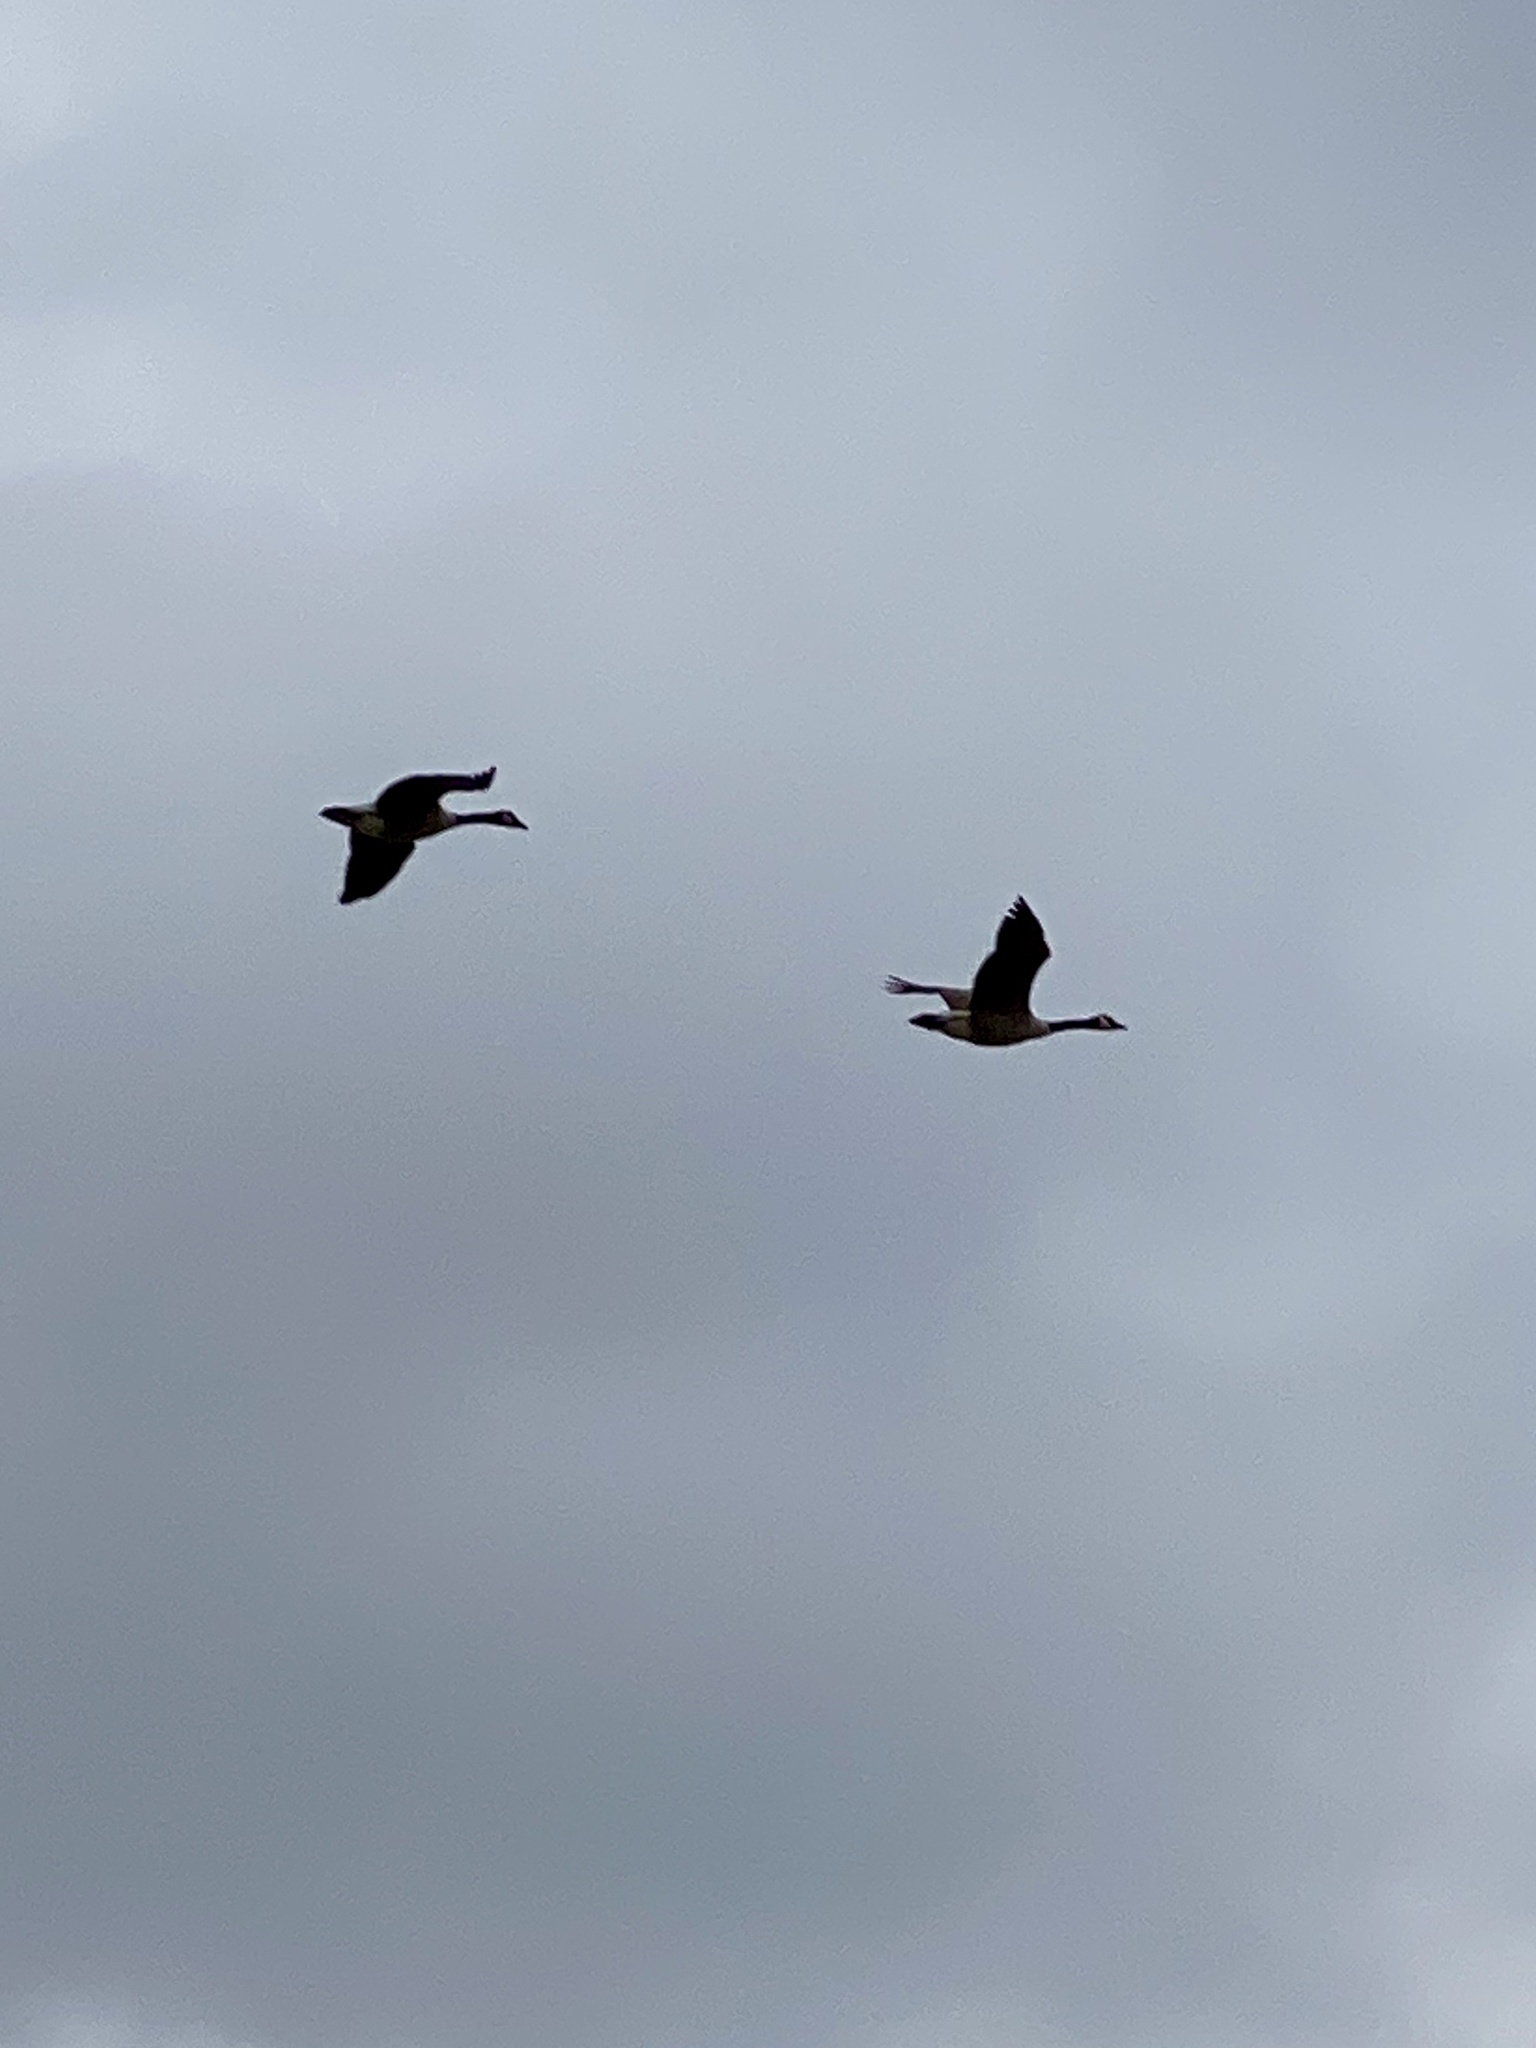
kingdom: Animalia
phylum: Chordata
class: Aves
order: Anseriformes
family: Anatidae
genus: Branta
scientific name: Branta canadensis
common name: Canada goose
